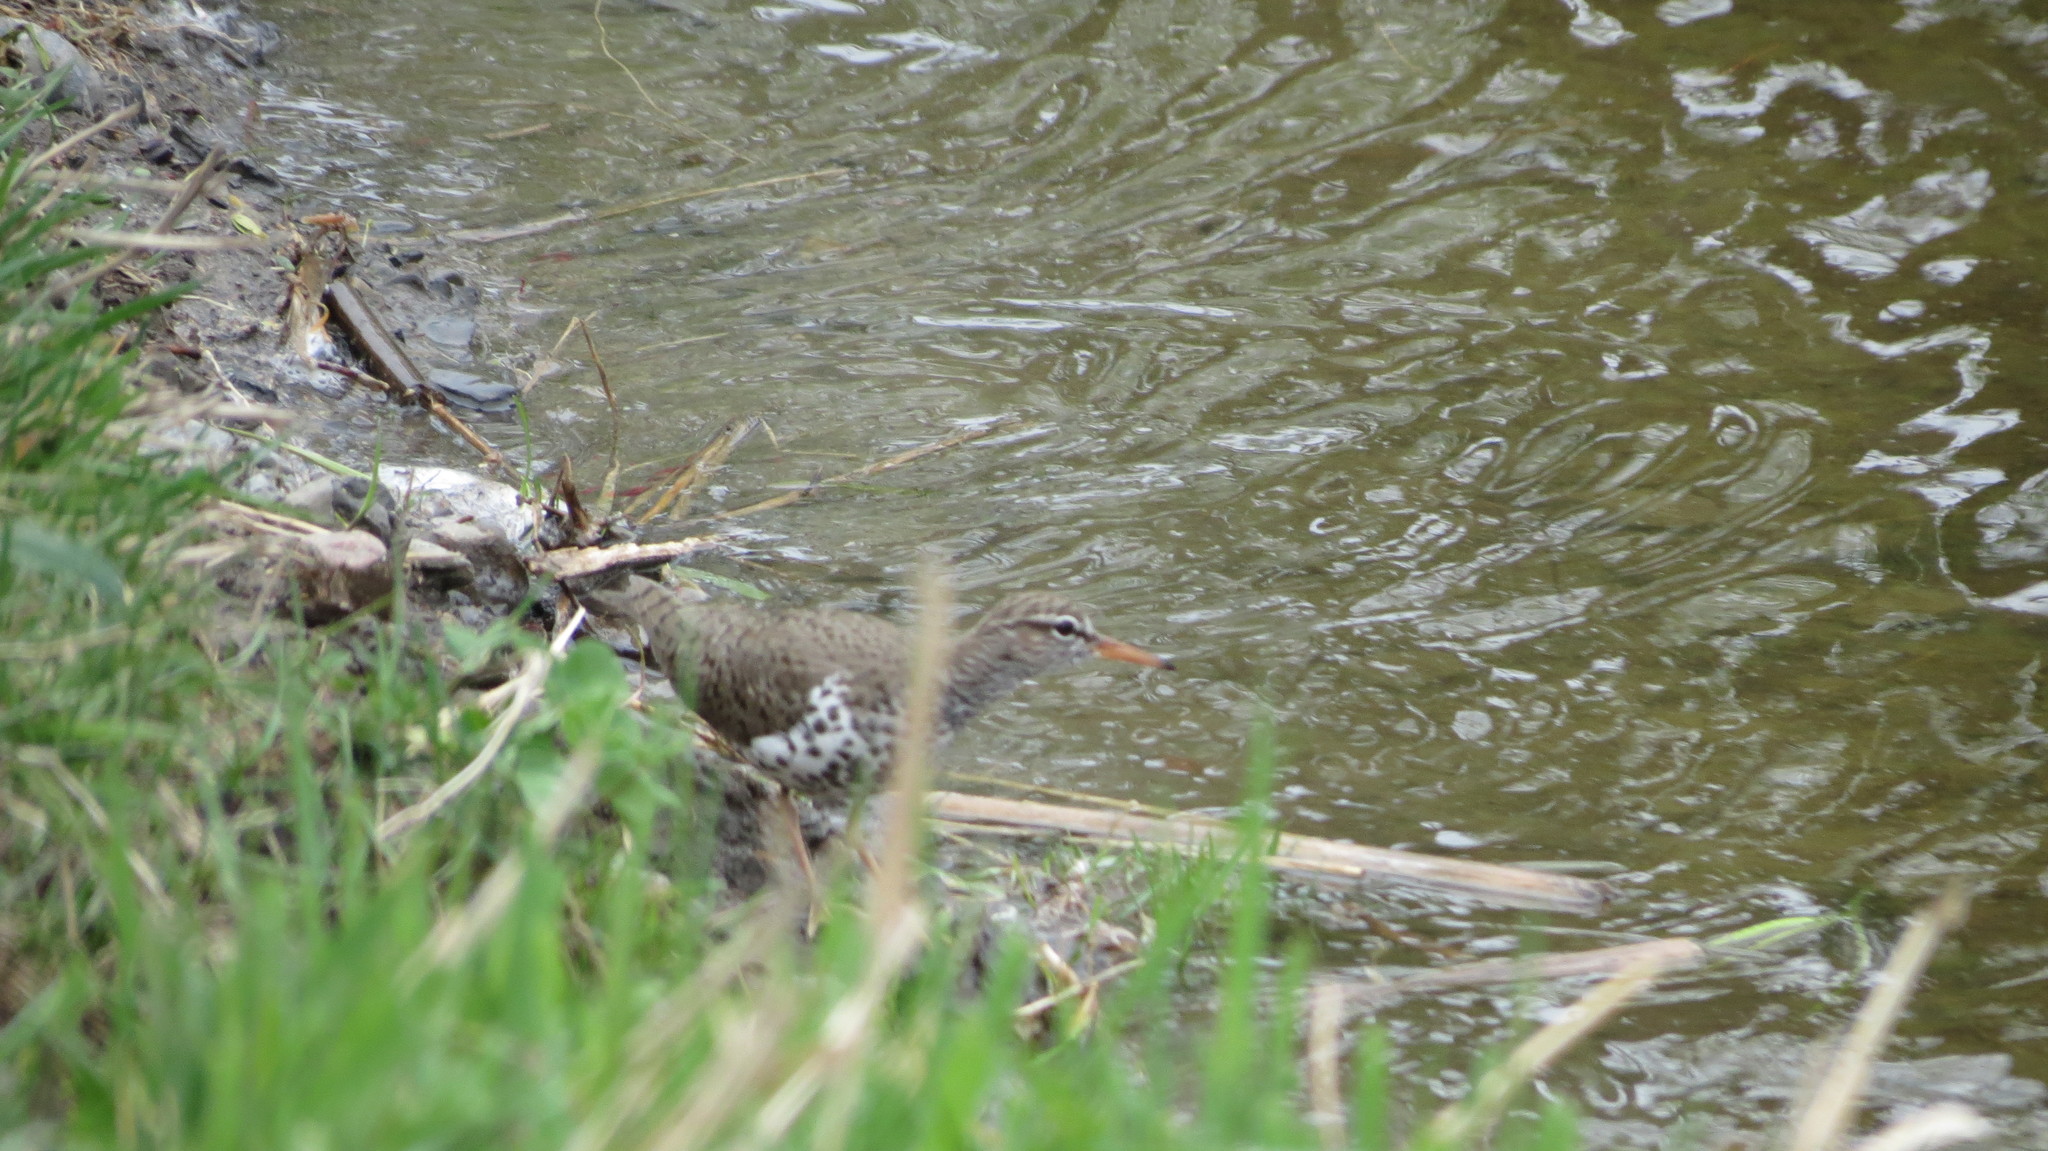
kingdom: Animalia
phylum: Chordata
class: Aves
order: Charadriiformes
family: Scolopacidae
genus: Actitis
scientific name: Actitis macularius
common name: Spotted sandpiper
